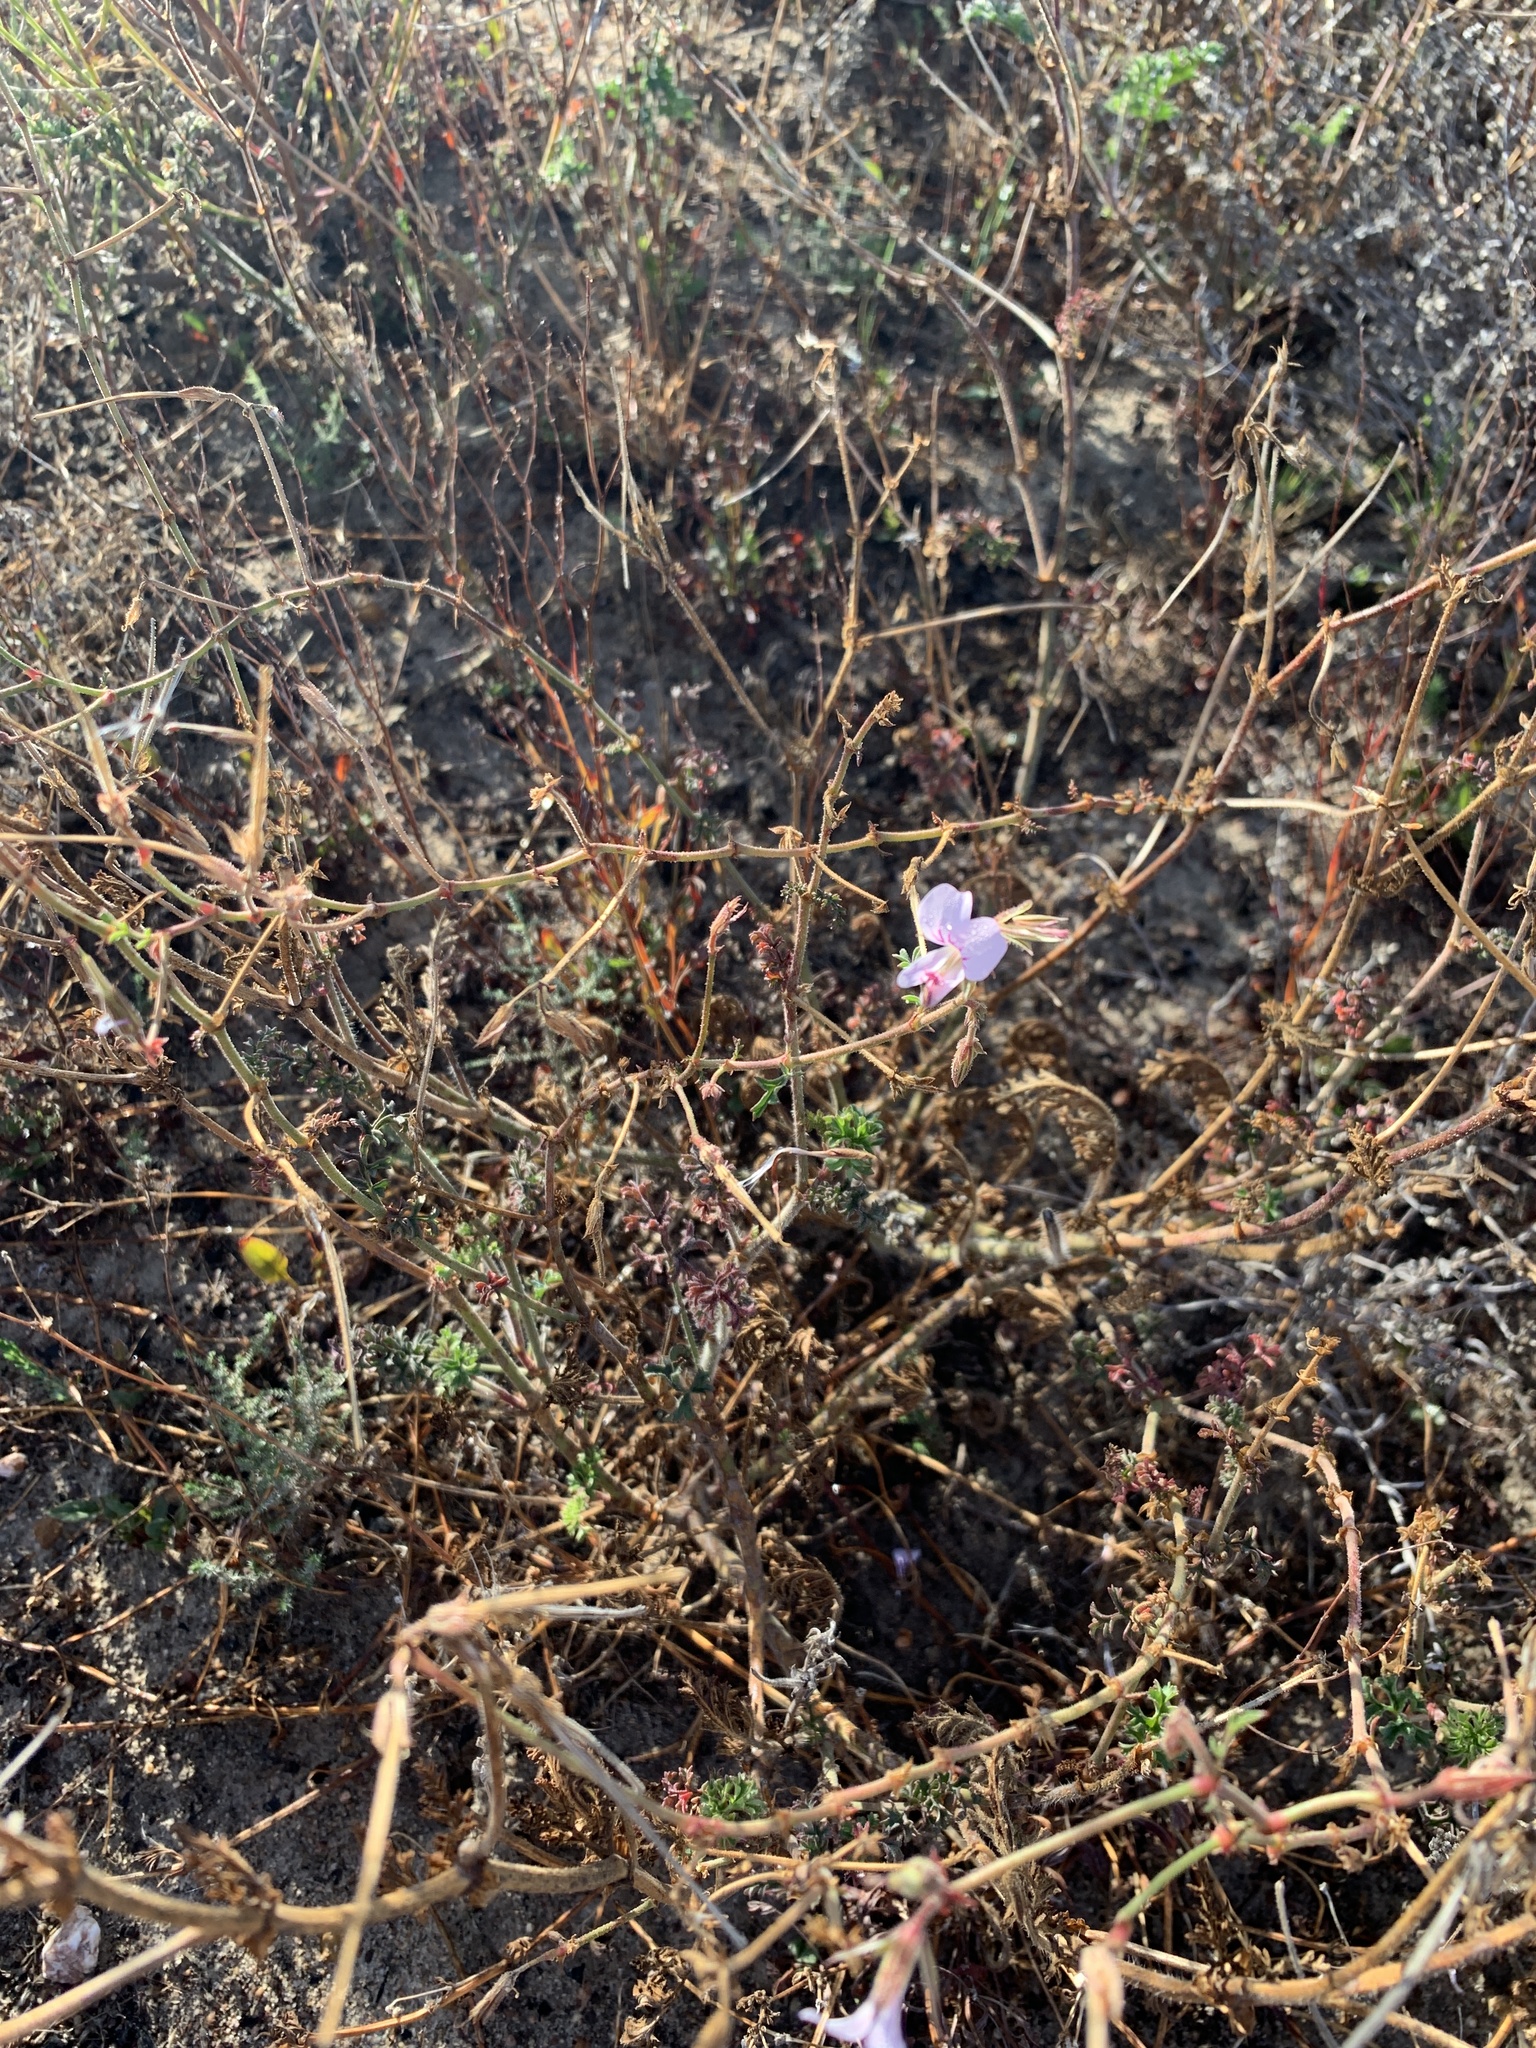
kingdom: Plantae
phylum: Tracheophyta
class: Magnoliopsida
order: Geraniales
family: Geraniaceae
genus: Pelargonium
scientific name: Pelargonium myrrhifolium
